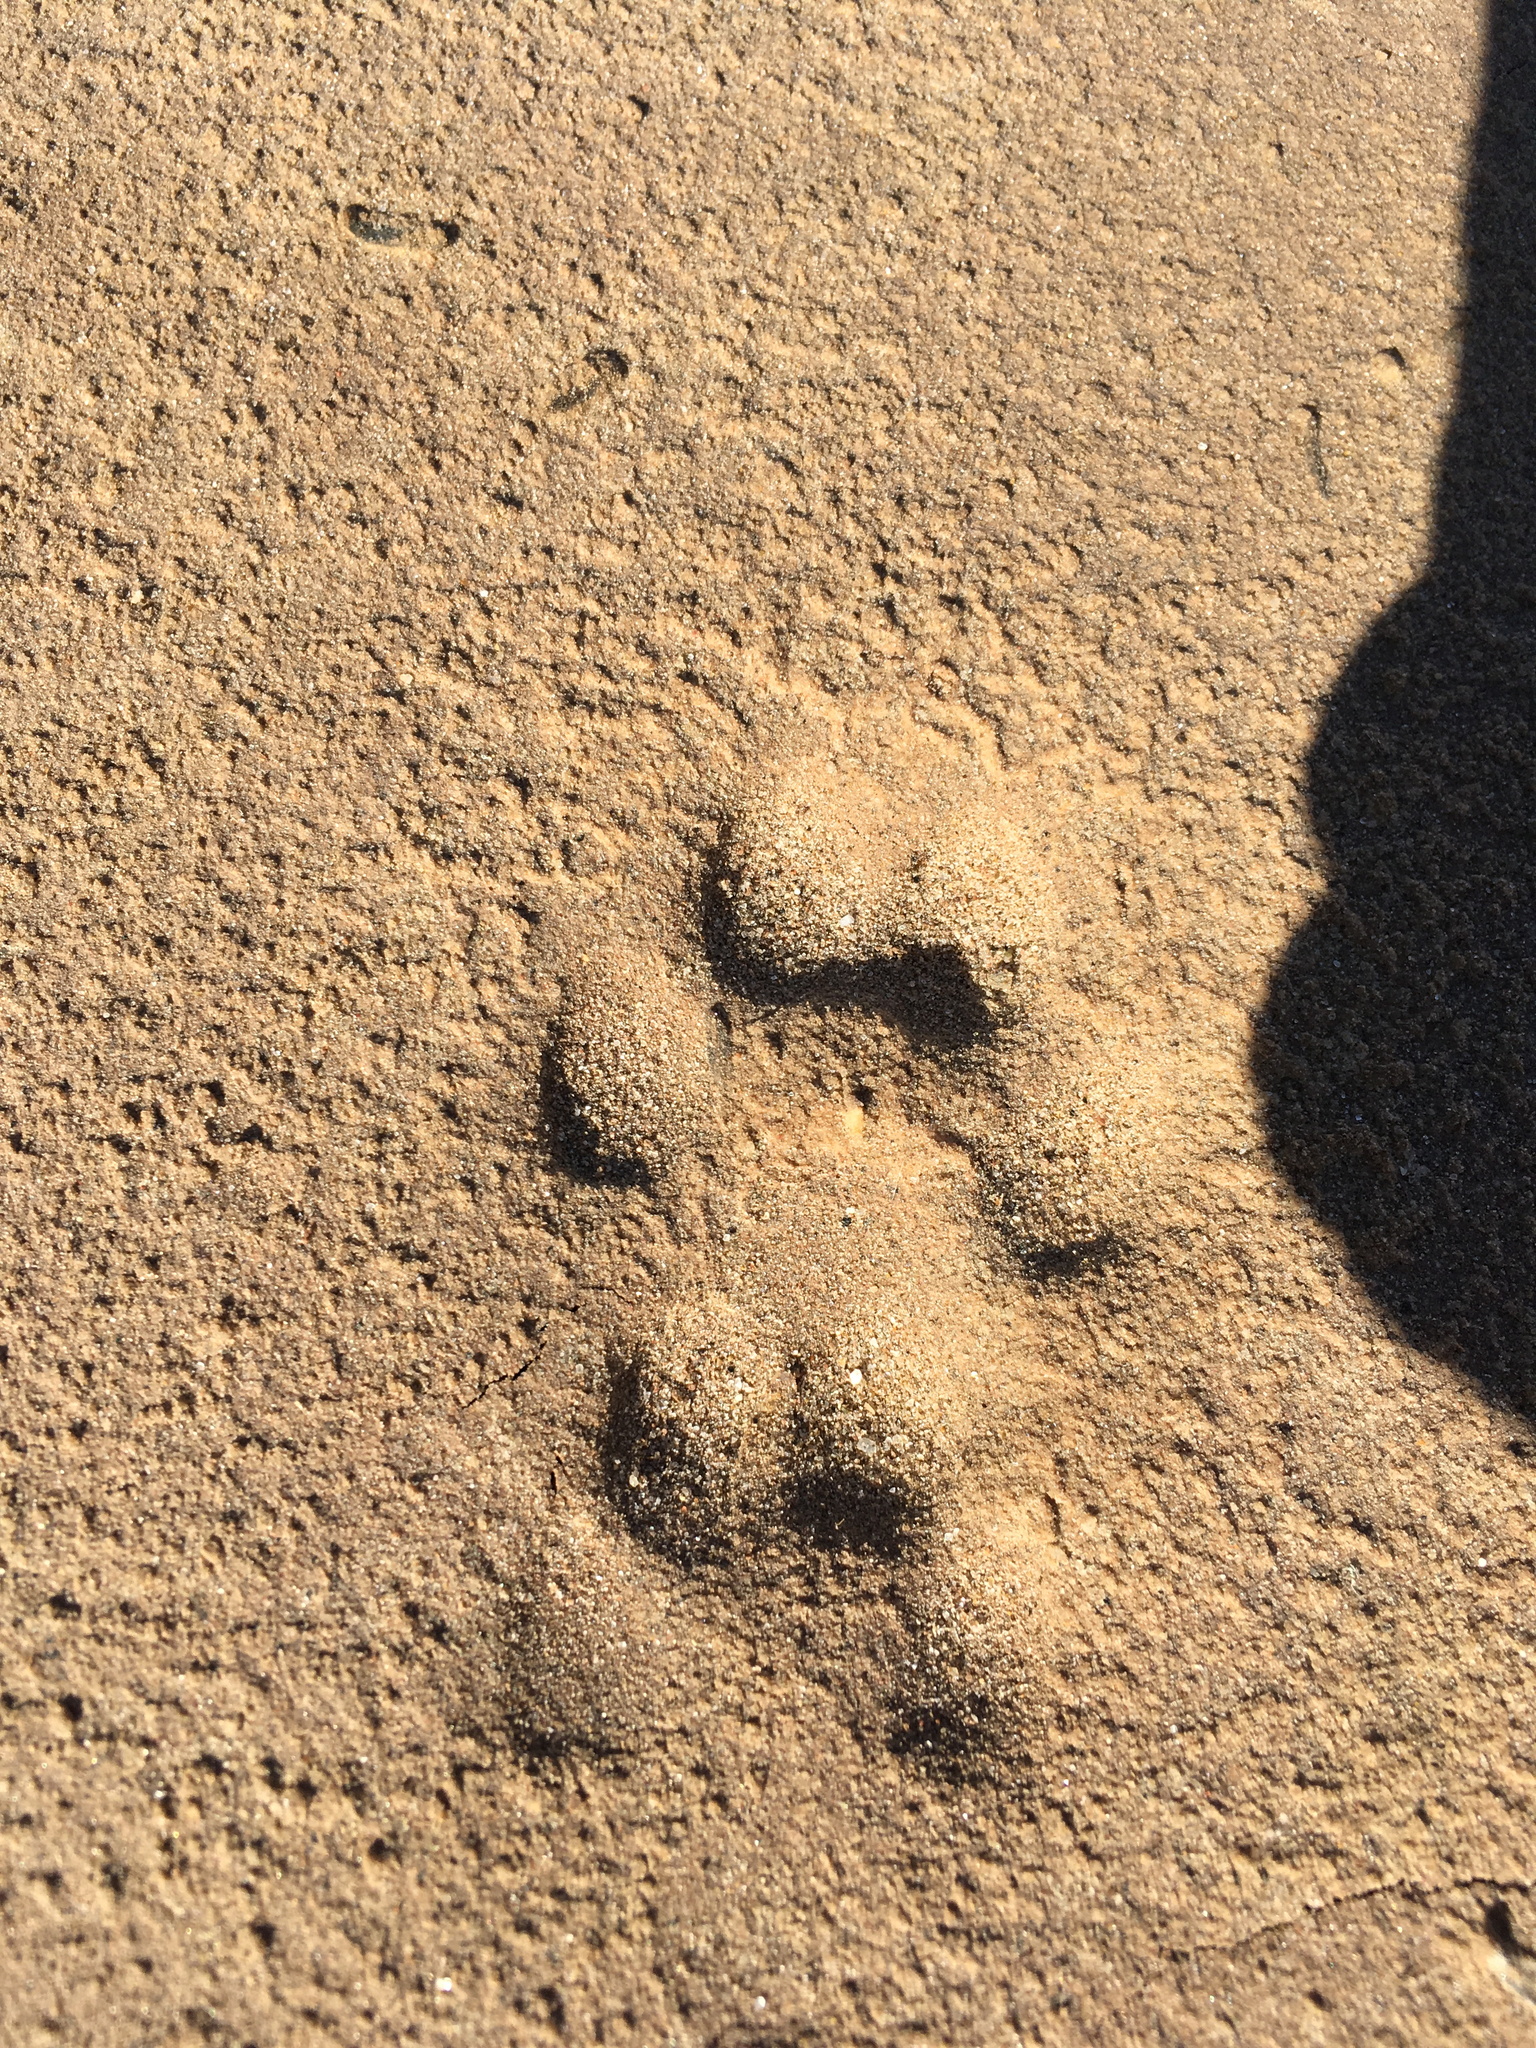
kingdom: Animalia
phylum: Chordata
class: Mammalia
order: Carnivora
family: Canidae
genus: Canis
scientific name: Canis latrans
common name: Coyote
